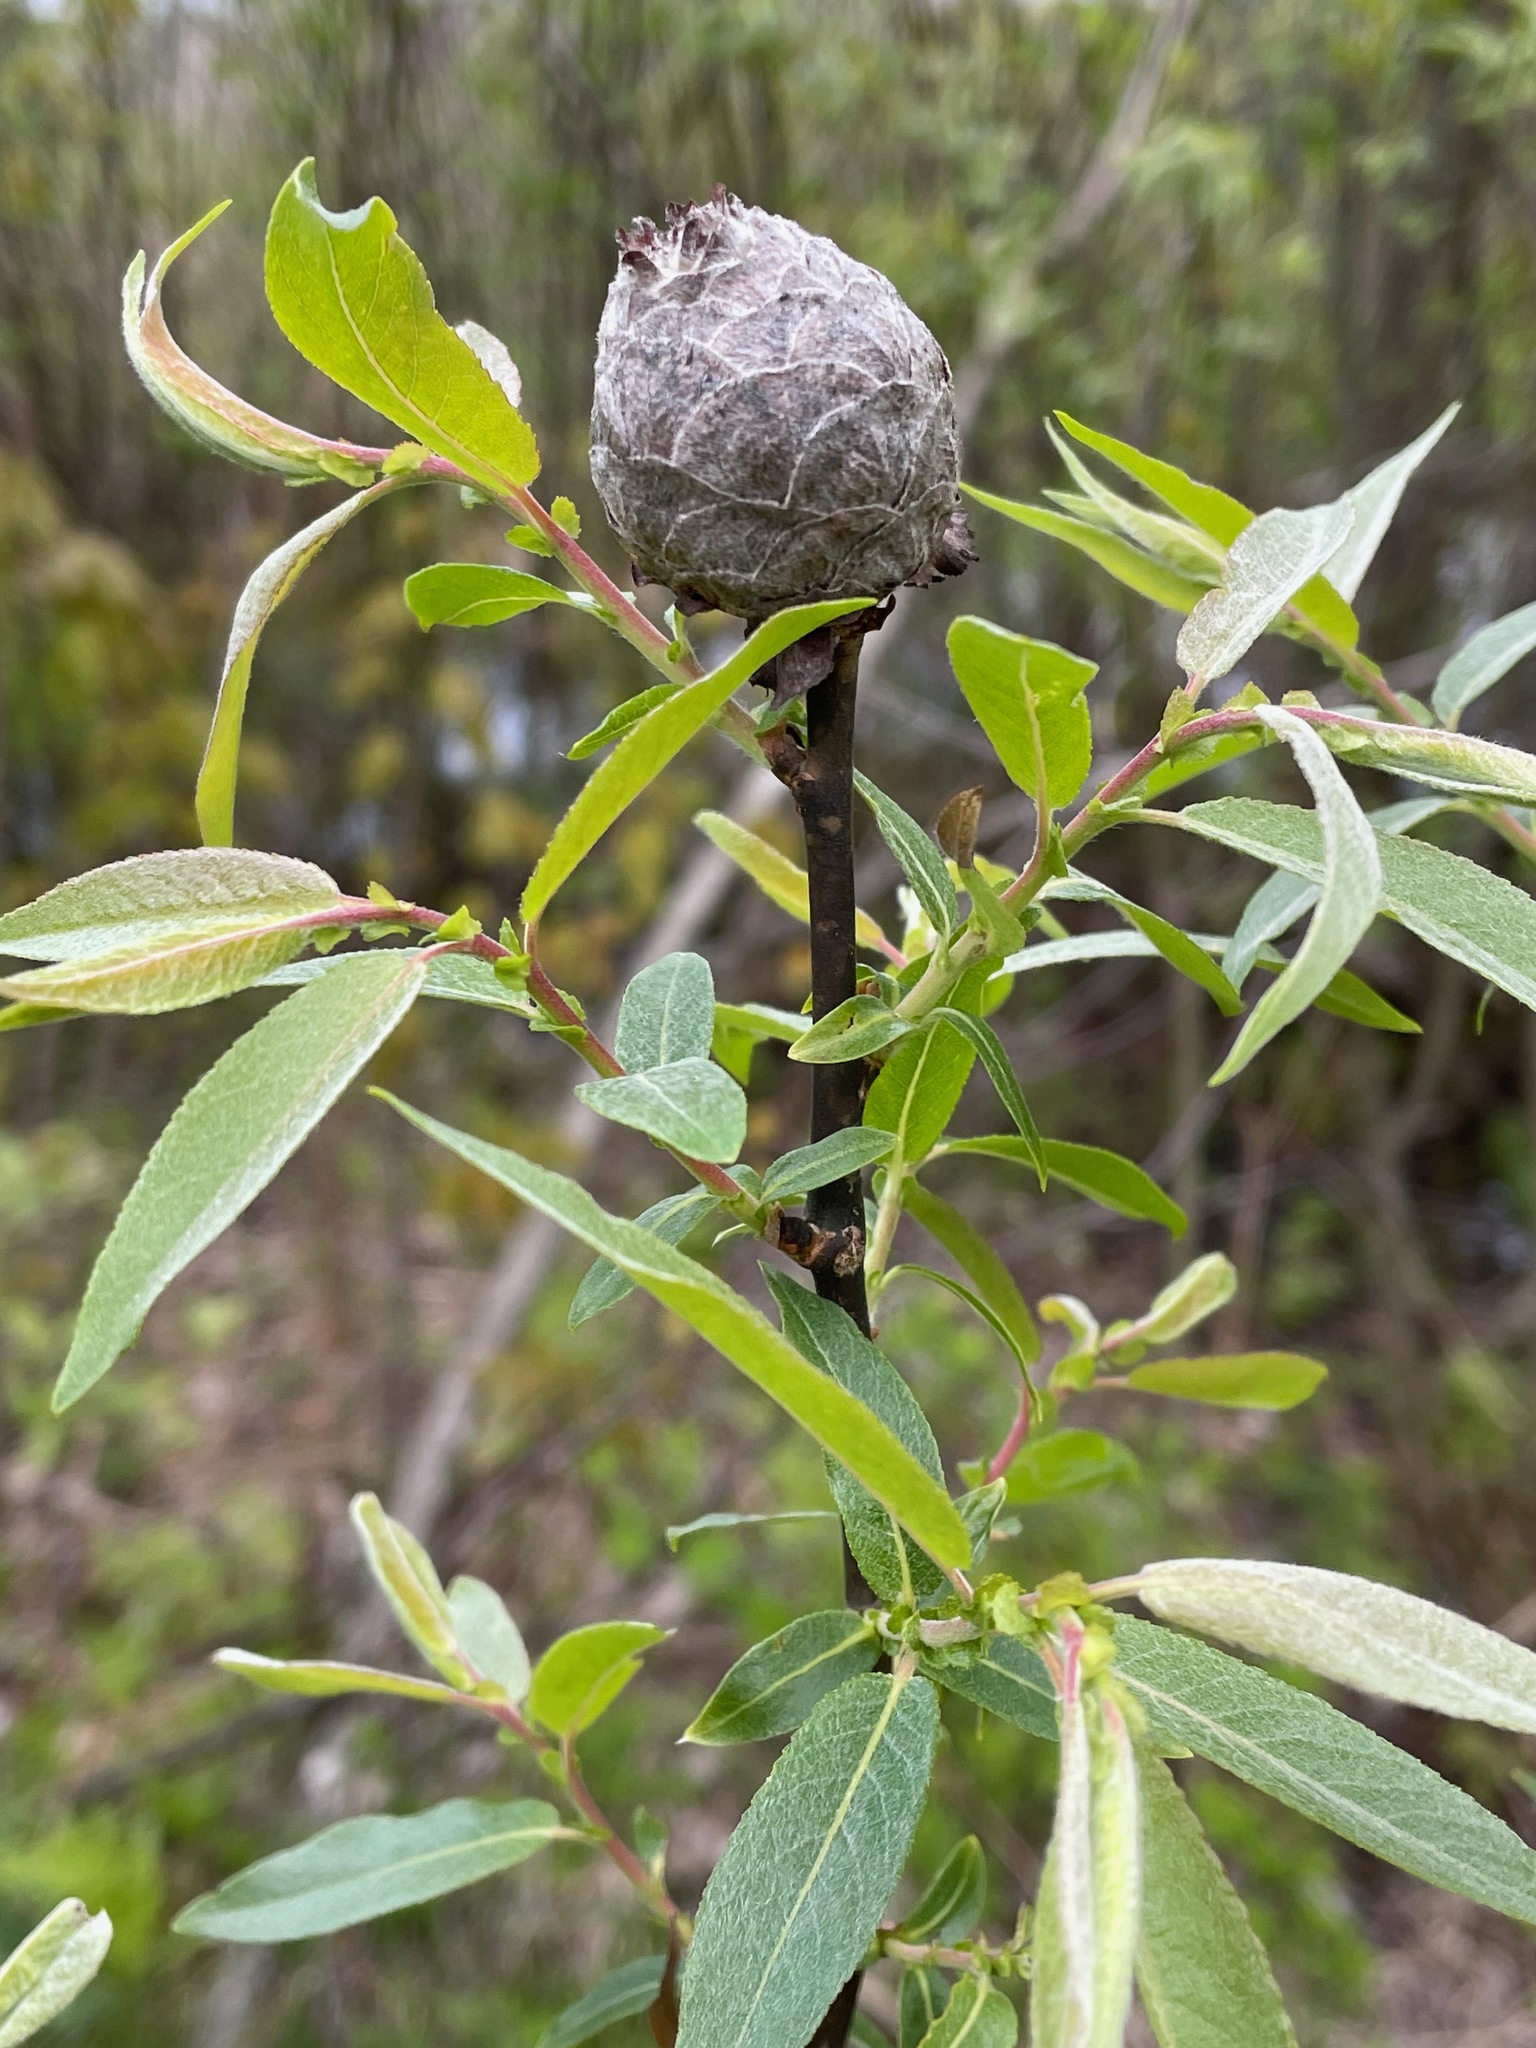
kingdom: Animalia
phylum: Arthropoda
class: Insecta
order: Diptera
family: Cecidomyiidae
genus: Rabdophaga
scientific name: Rabdophaga strobiloides
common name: Willow pinecone gall midge
